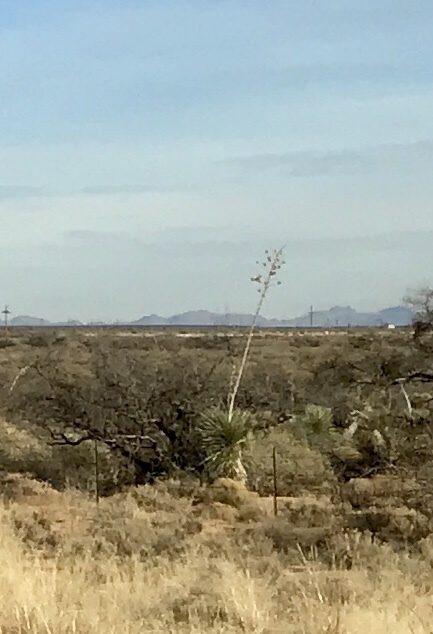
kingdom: Plantae
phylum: Tracheophyta
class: Liliopsida
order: Asparagales
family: Asparagaceae
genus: Yucca
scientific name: Yucca elata
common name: Palmella
